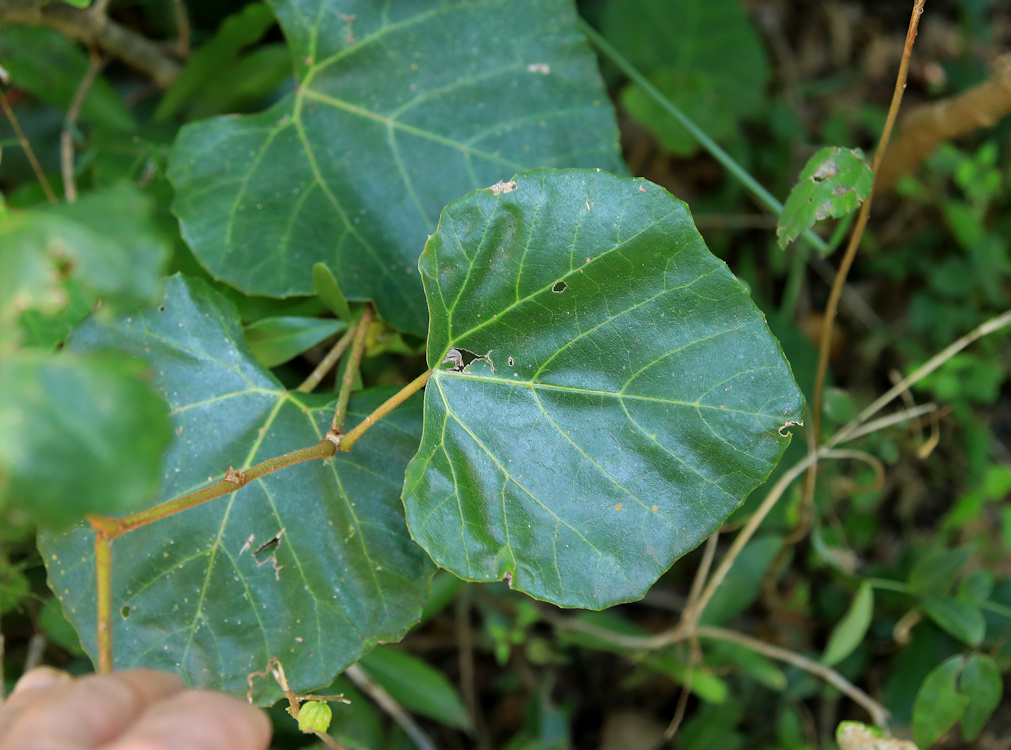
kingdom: Plantae
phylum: Tracheophyta
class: Magnoliopsida
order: Vitales
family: Vitaceae
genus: Rhoicissus
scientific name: Rhoicissus tomentosa
